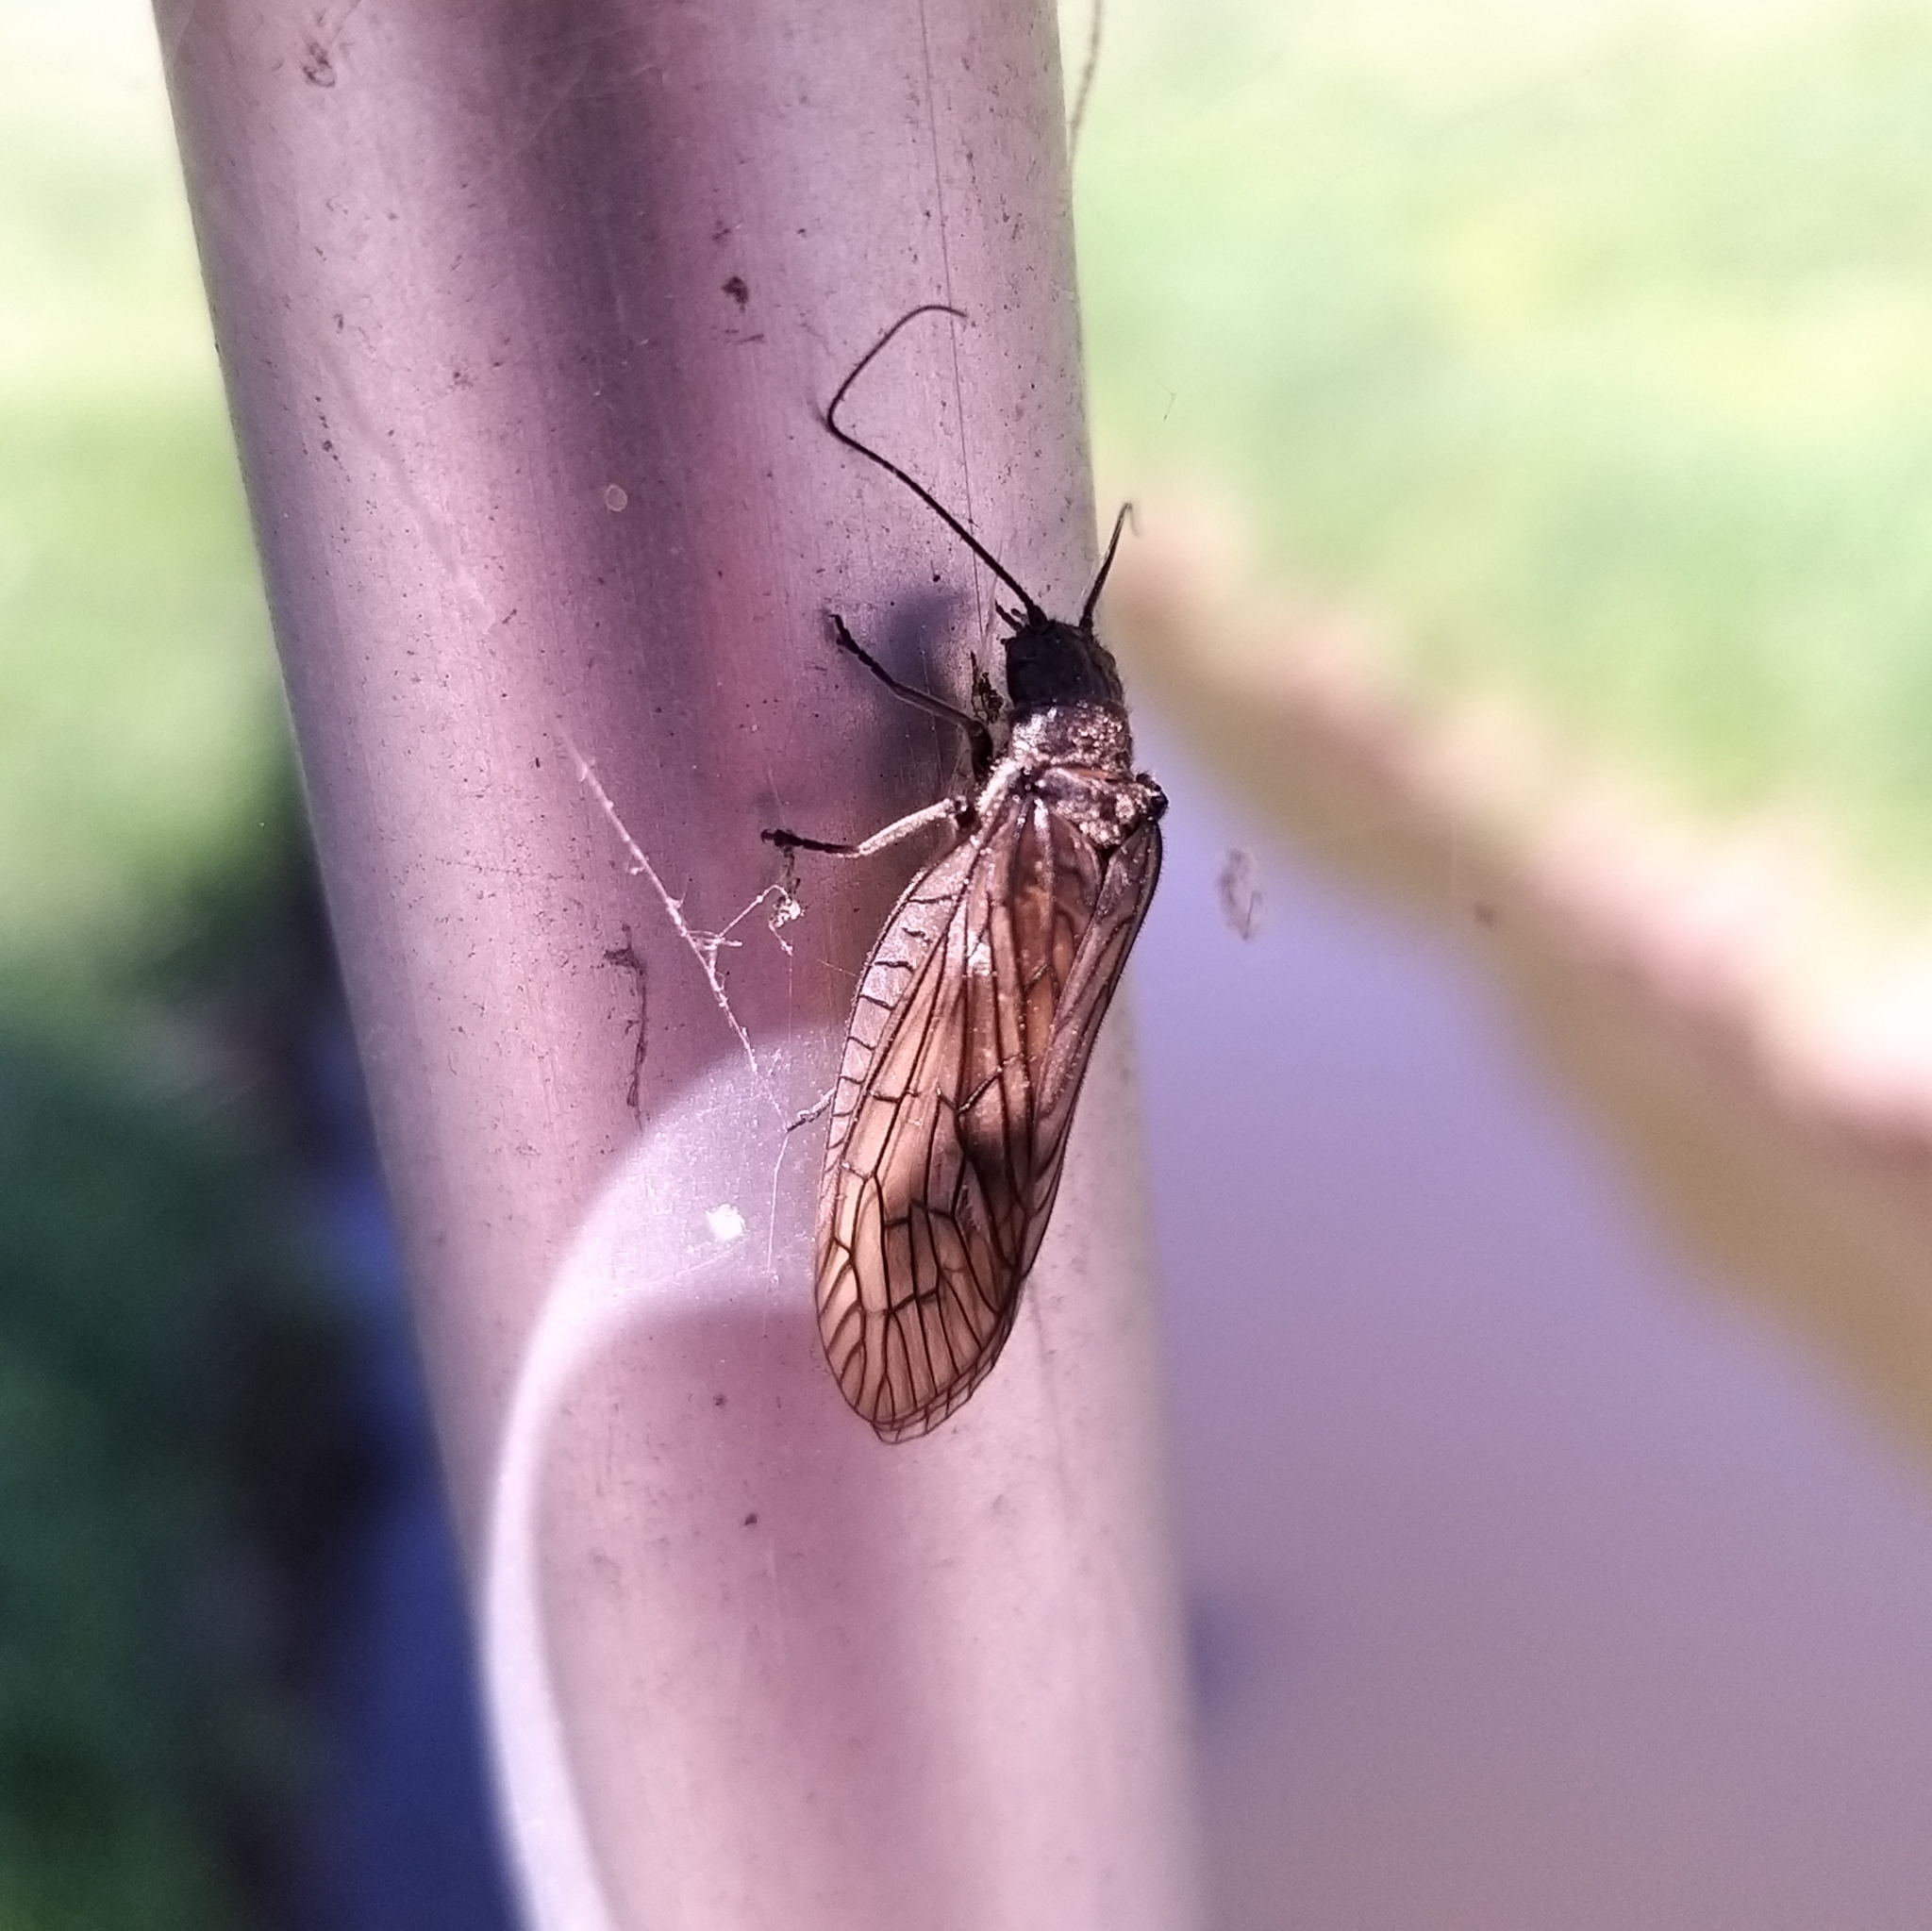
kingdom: Animalia
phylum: Arthropoda
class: Insecta
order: Megaloptera
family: Sialidae
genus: Sialis
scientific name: Sialis
